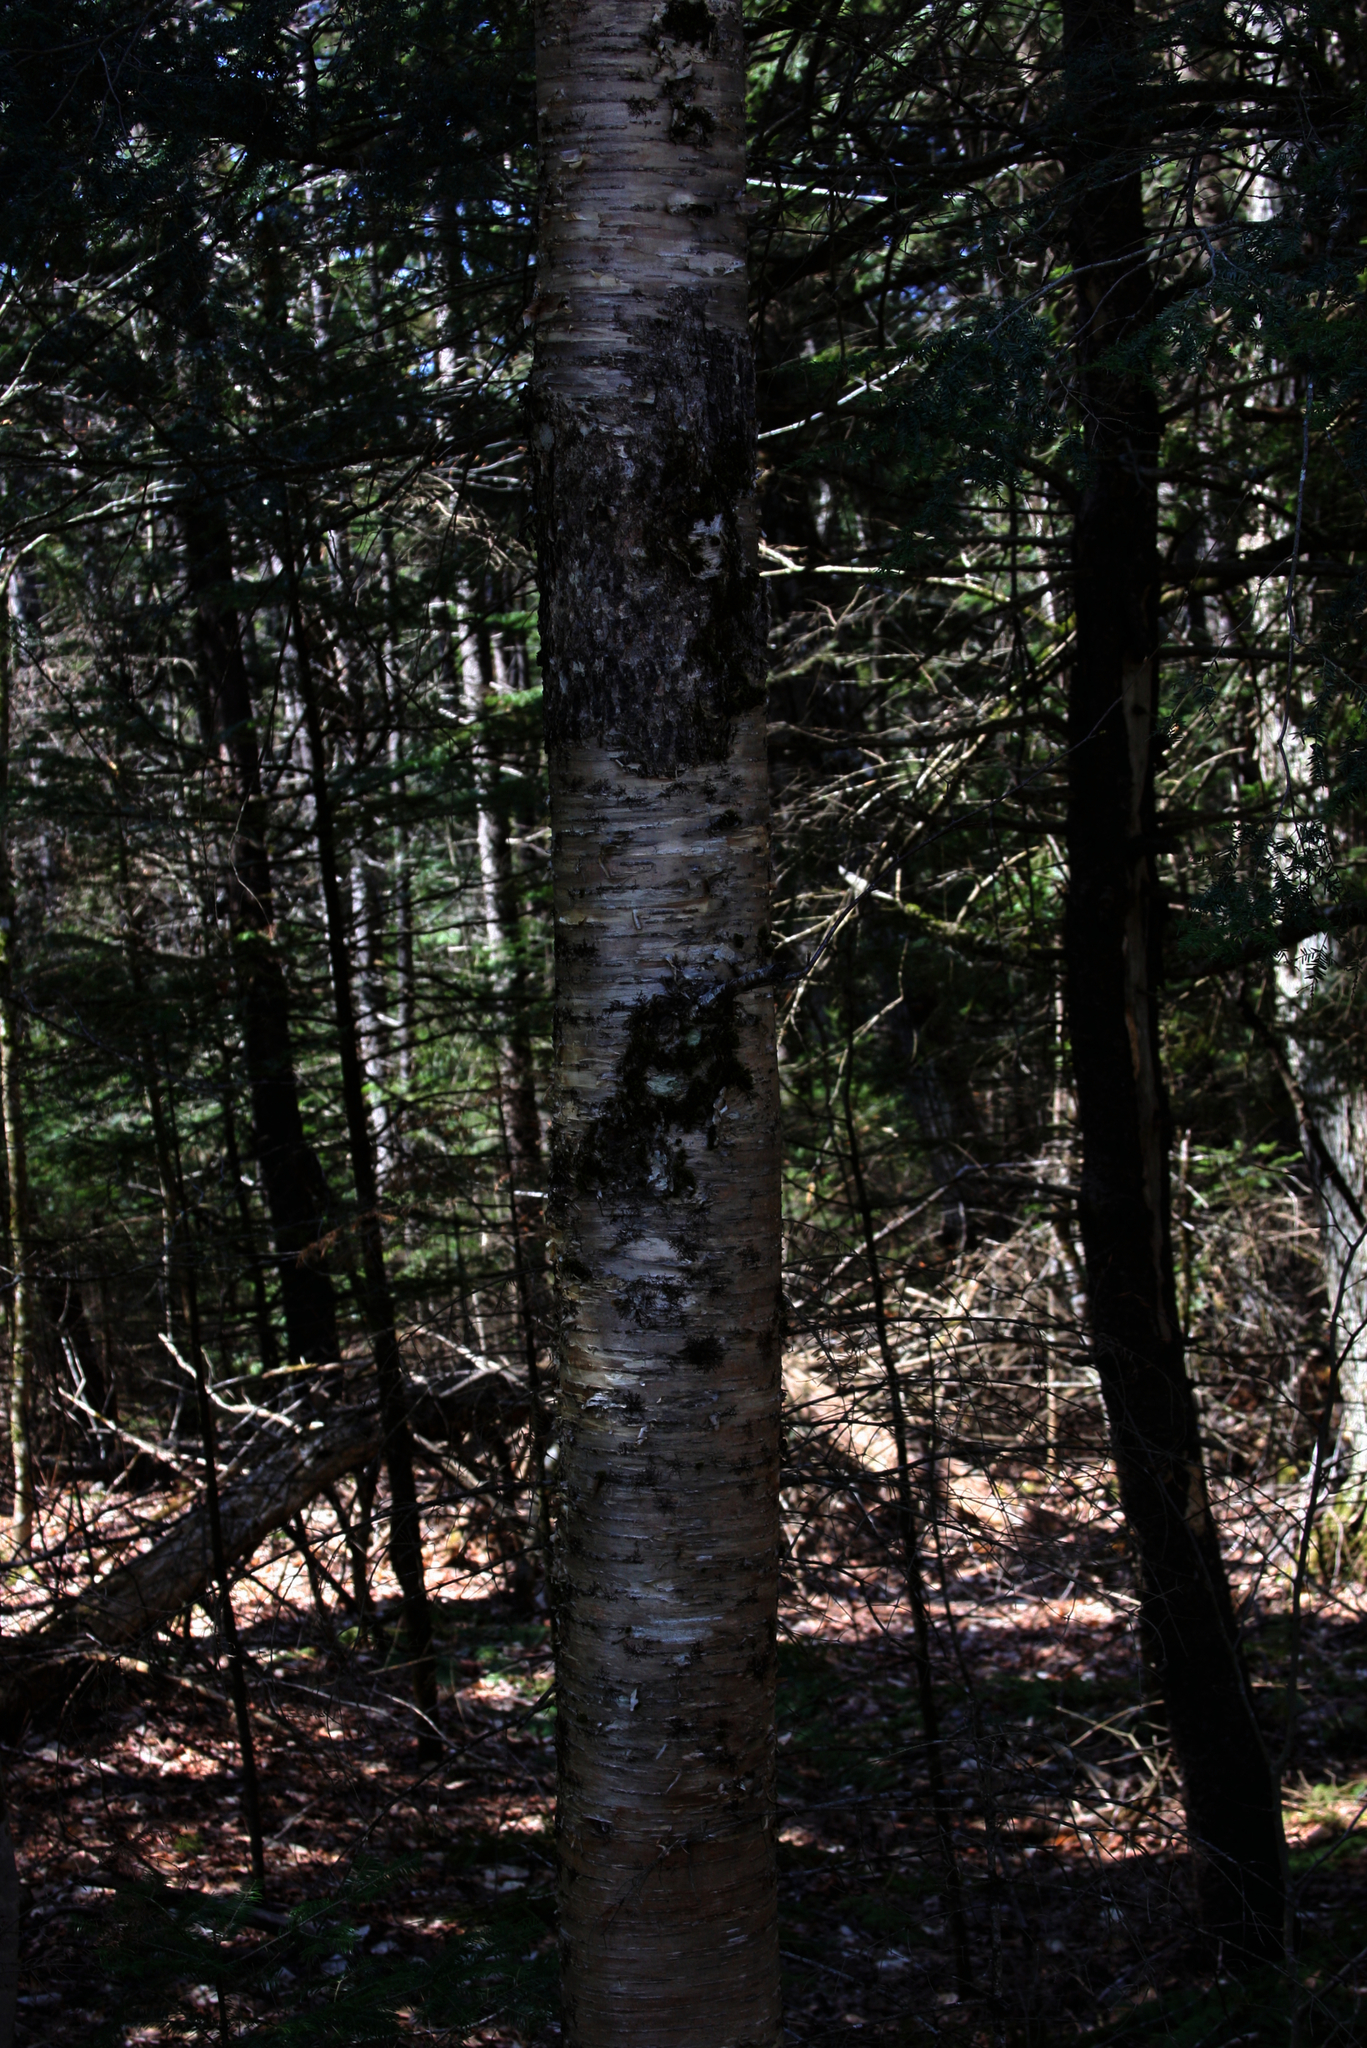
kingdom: Plantae
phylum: Tracheophyta
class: Magnoliopsida
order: Fagales
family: Betulaceae
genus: Betula
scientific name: Betula alleghaniensis
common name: Yellow birch
